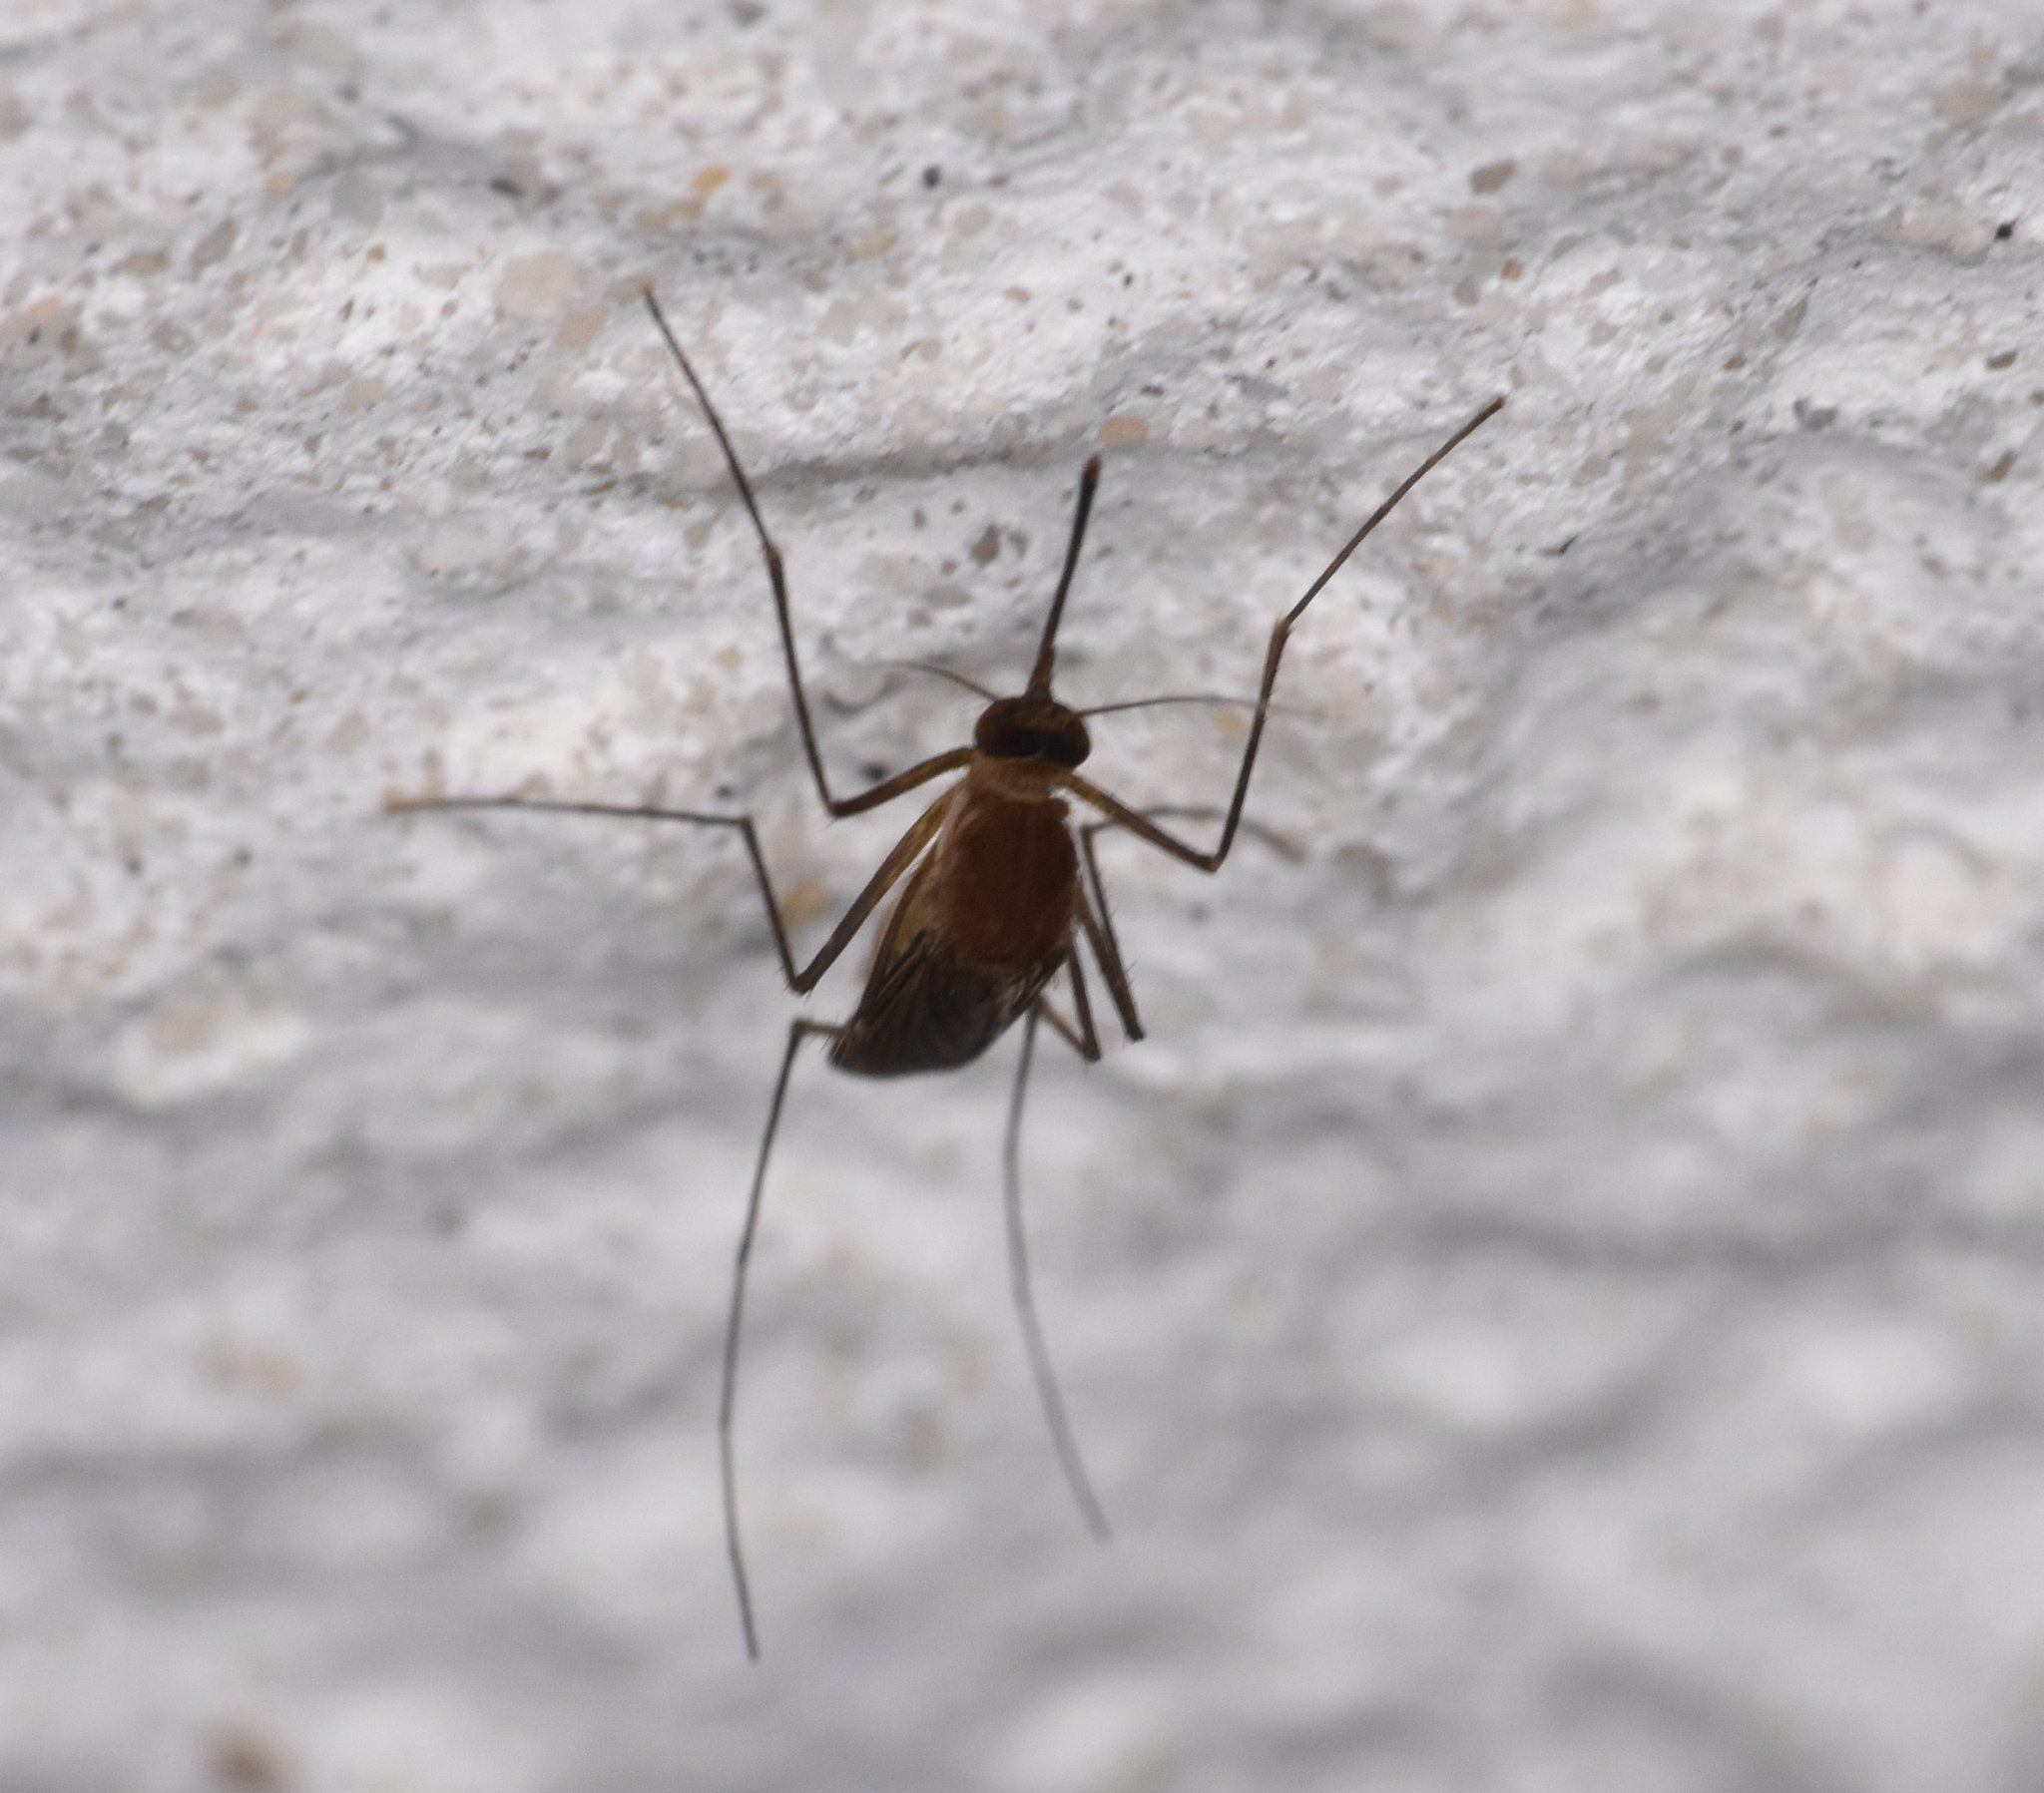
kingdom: Animalia
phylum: Arthropoda
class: Insecta
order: Diptera
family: Culicidae
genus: Culex
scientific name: Culex nigripalpus
